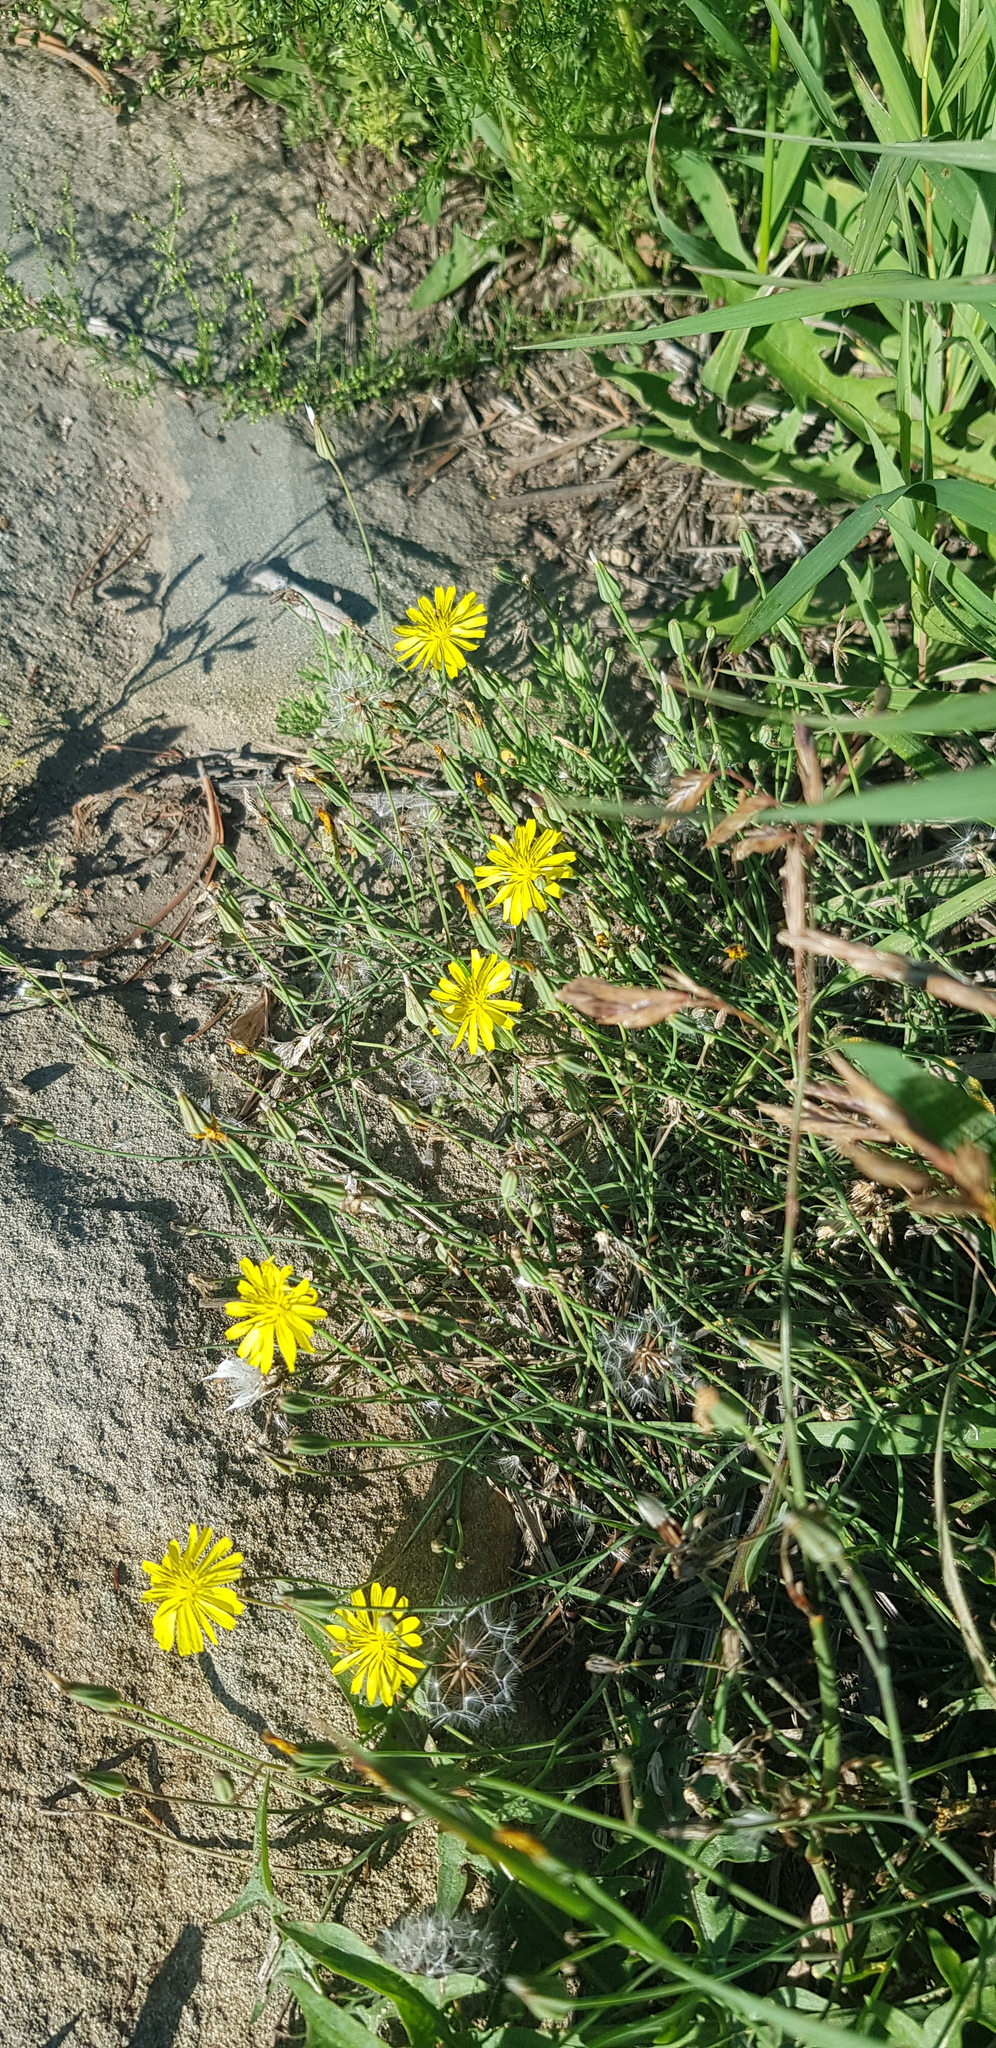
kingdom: Plantae
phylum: Tracheophyta
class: Magnoliopsida
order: Asterales
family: Asteraceae
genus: Crepidiastrum
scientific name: Crepidiastrum tenuifolium
